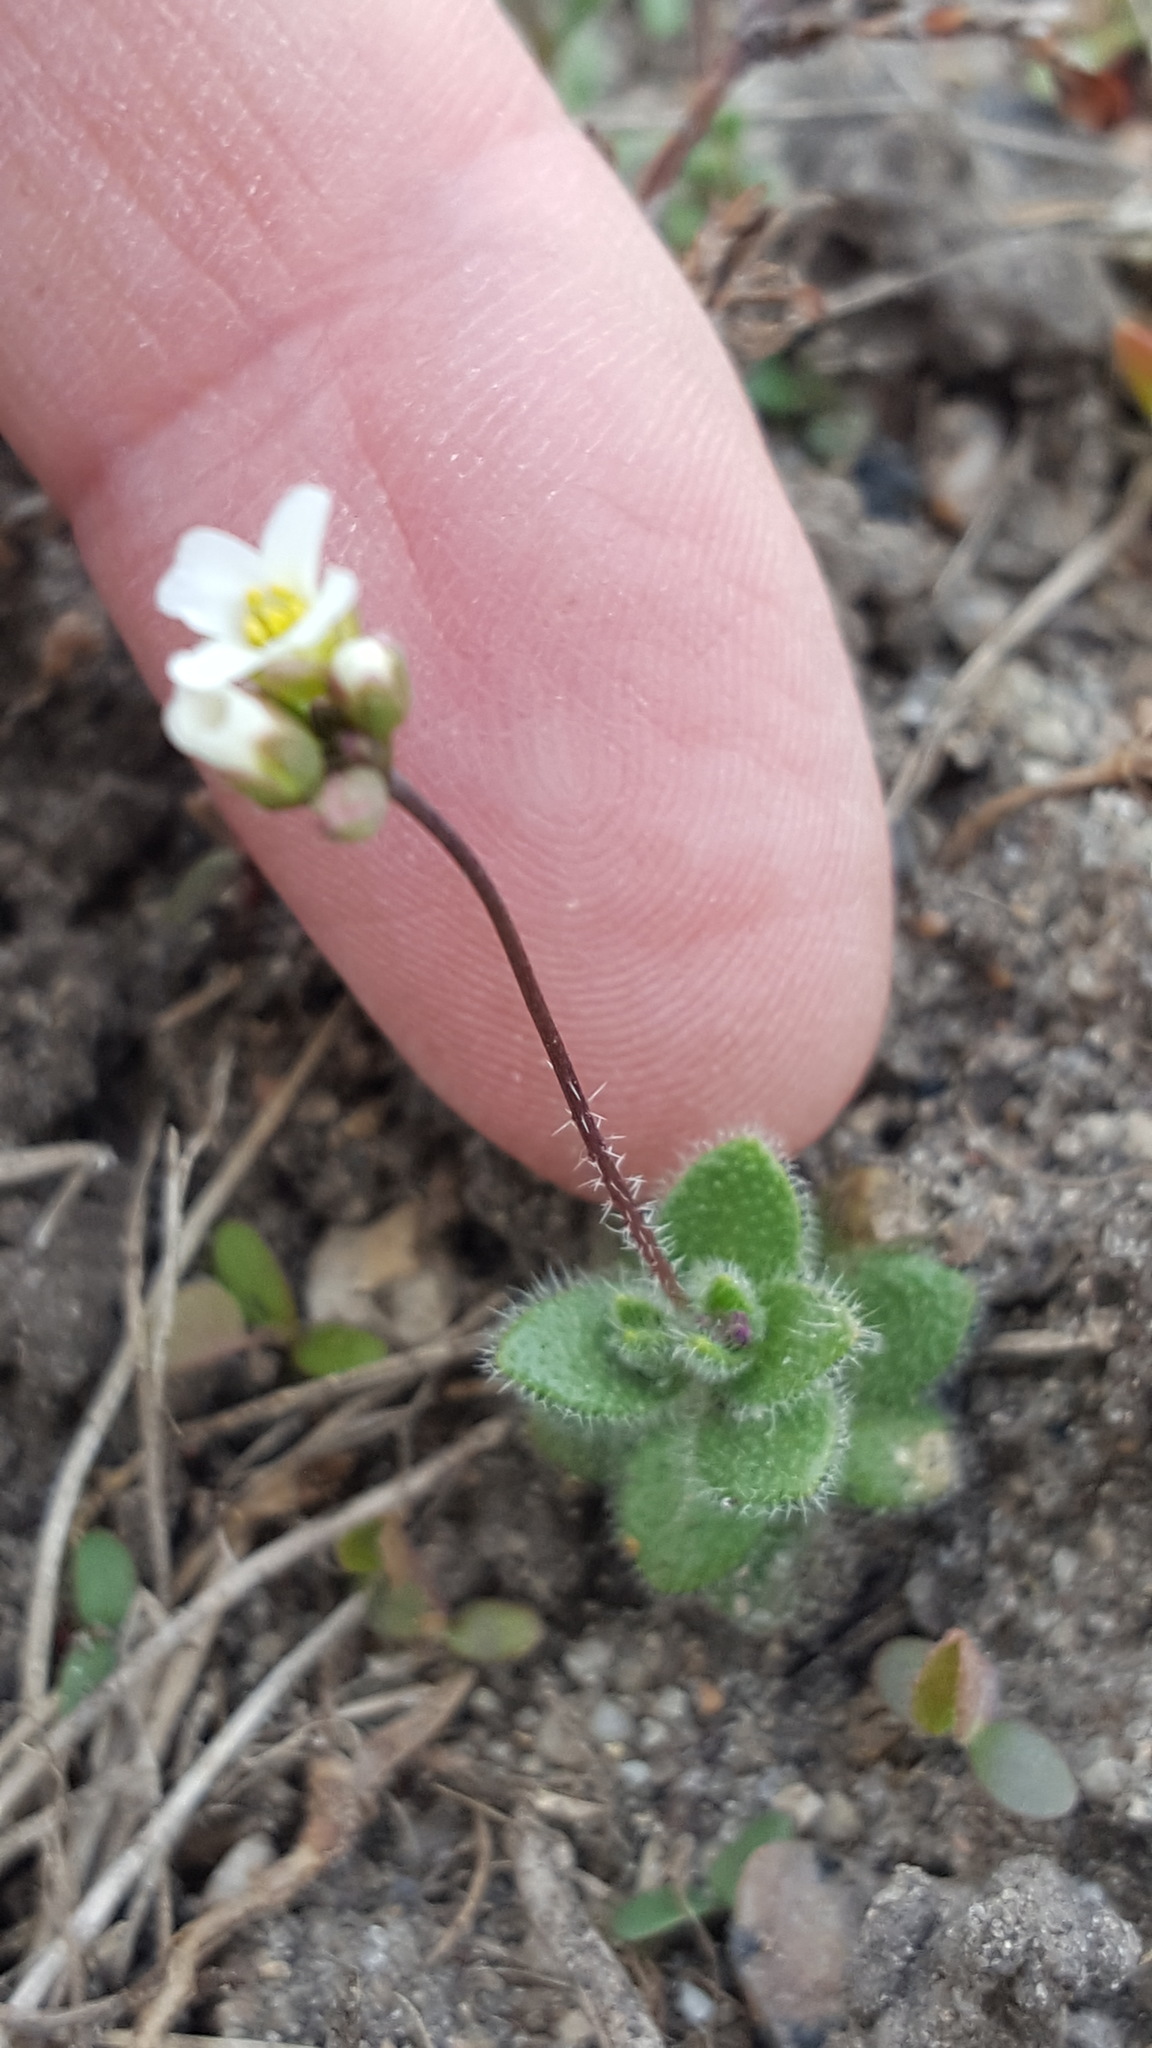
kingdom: Plantae
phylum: Tracheophyta
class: Magnoliopsida
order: Brassicales
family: Brassicaceae
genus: Tomostima
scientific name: Tomostima reptans
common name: Carolina draba
